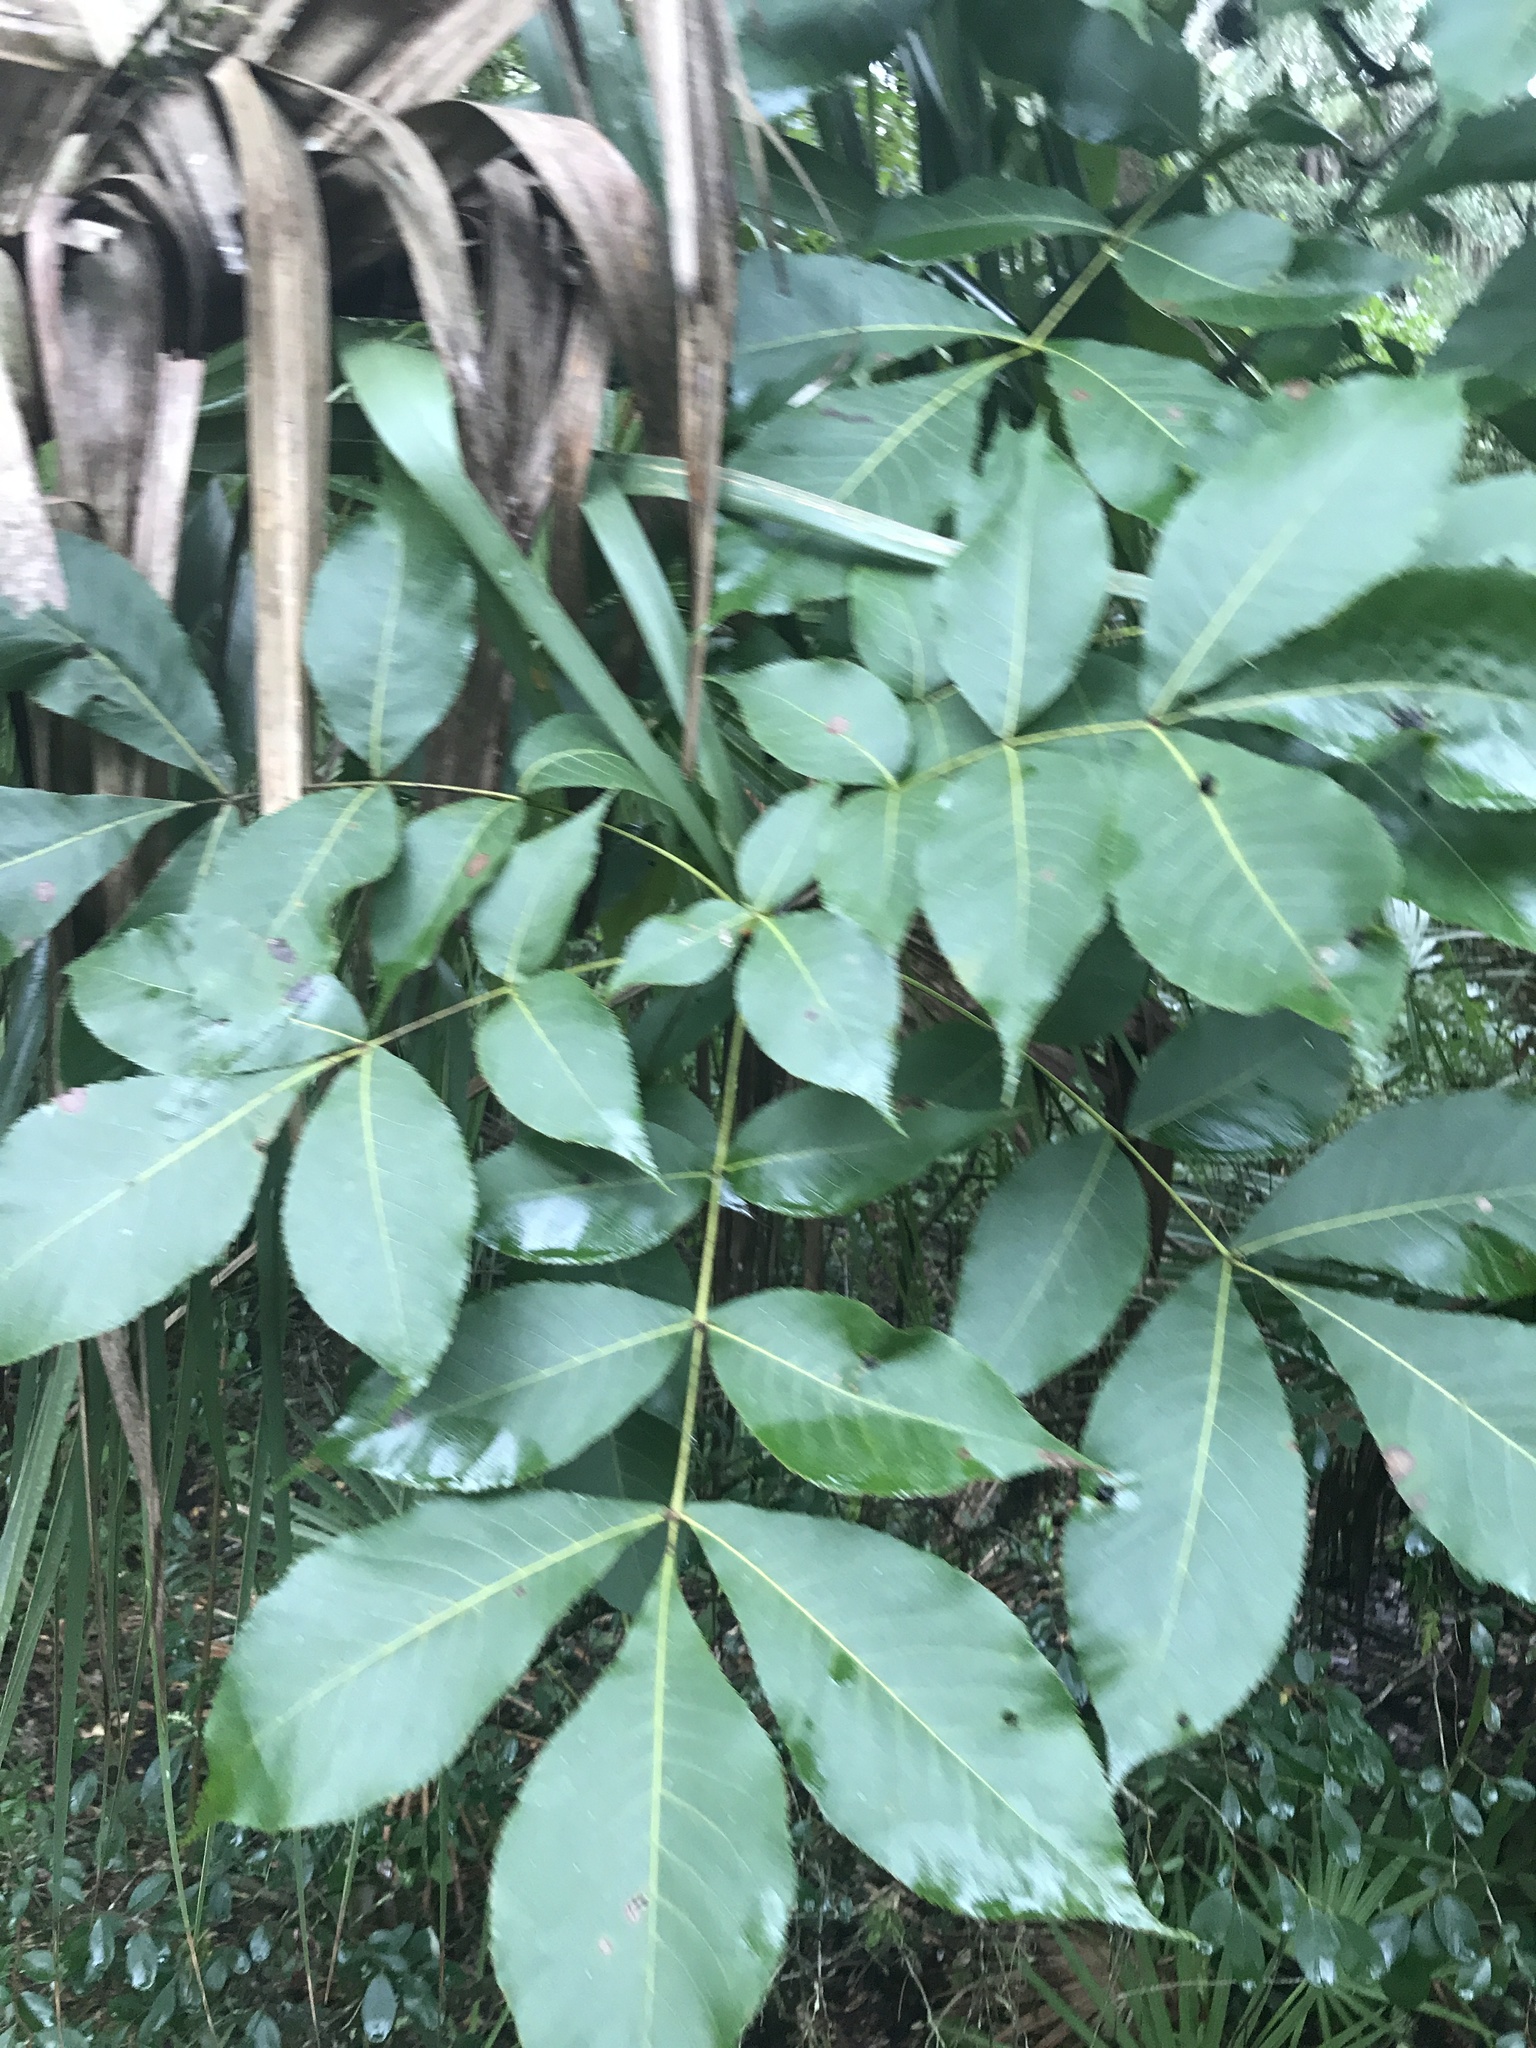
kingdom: Plantae
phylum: Tracheophyta
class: Magnoliopsida
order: Fagales
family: Juglandaceae
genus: Carya
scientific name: Carya glabra
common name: Pignut hickory
